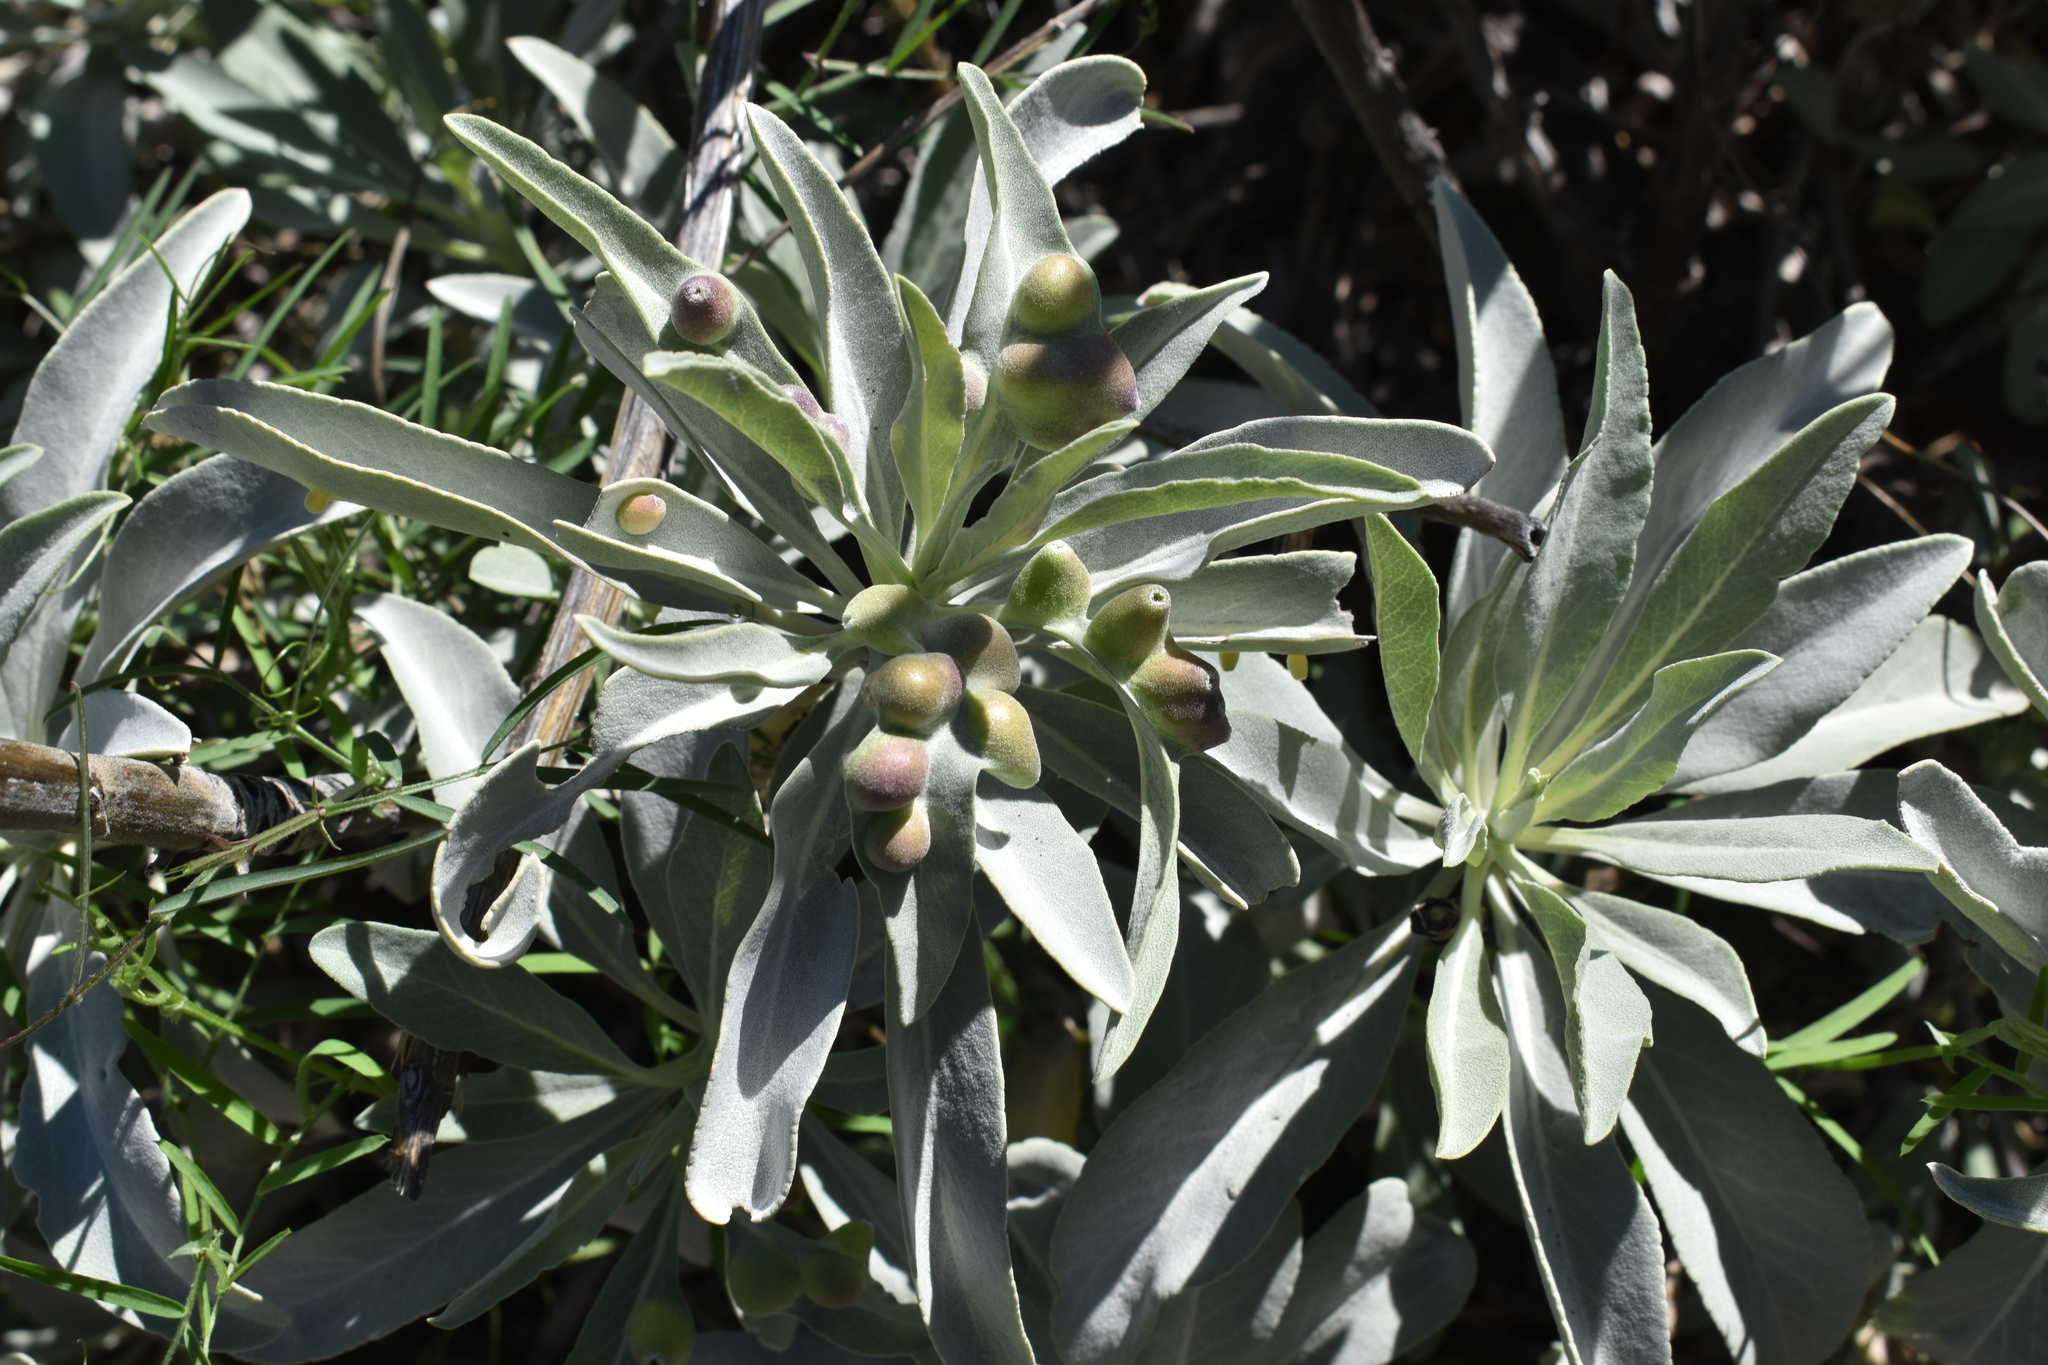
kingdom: Animalia
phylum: Arthropoda
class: Insecta
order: Diptera
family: Cecidomyiidae
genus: Rhopalomyia
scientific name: Rhopalomyia audibertiae
